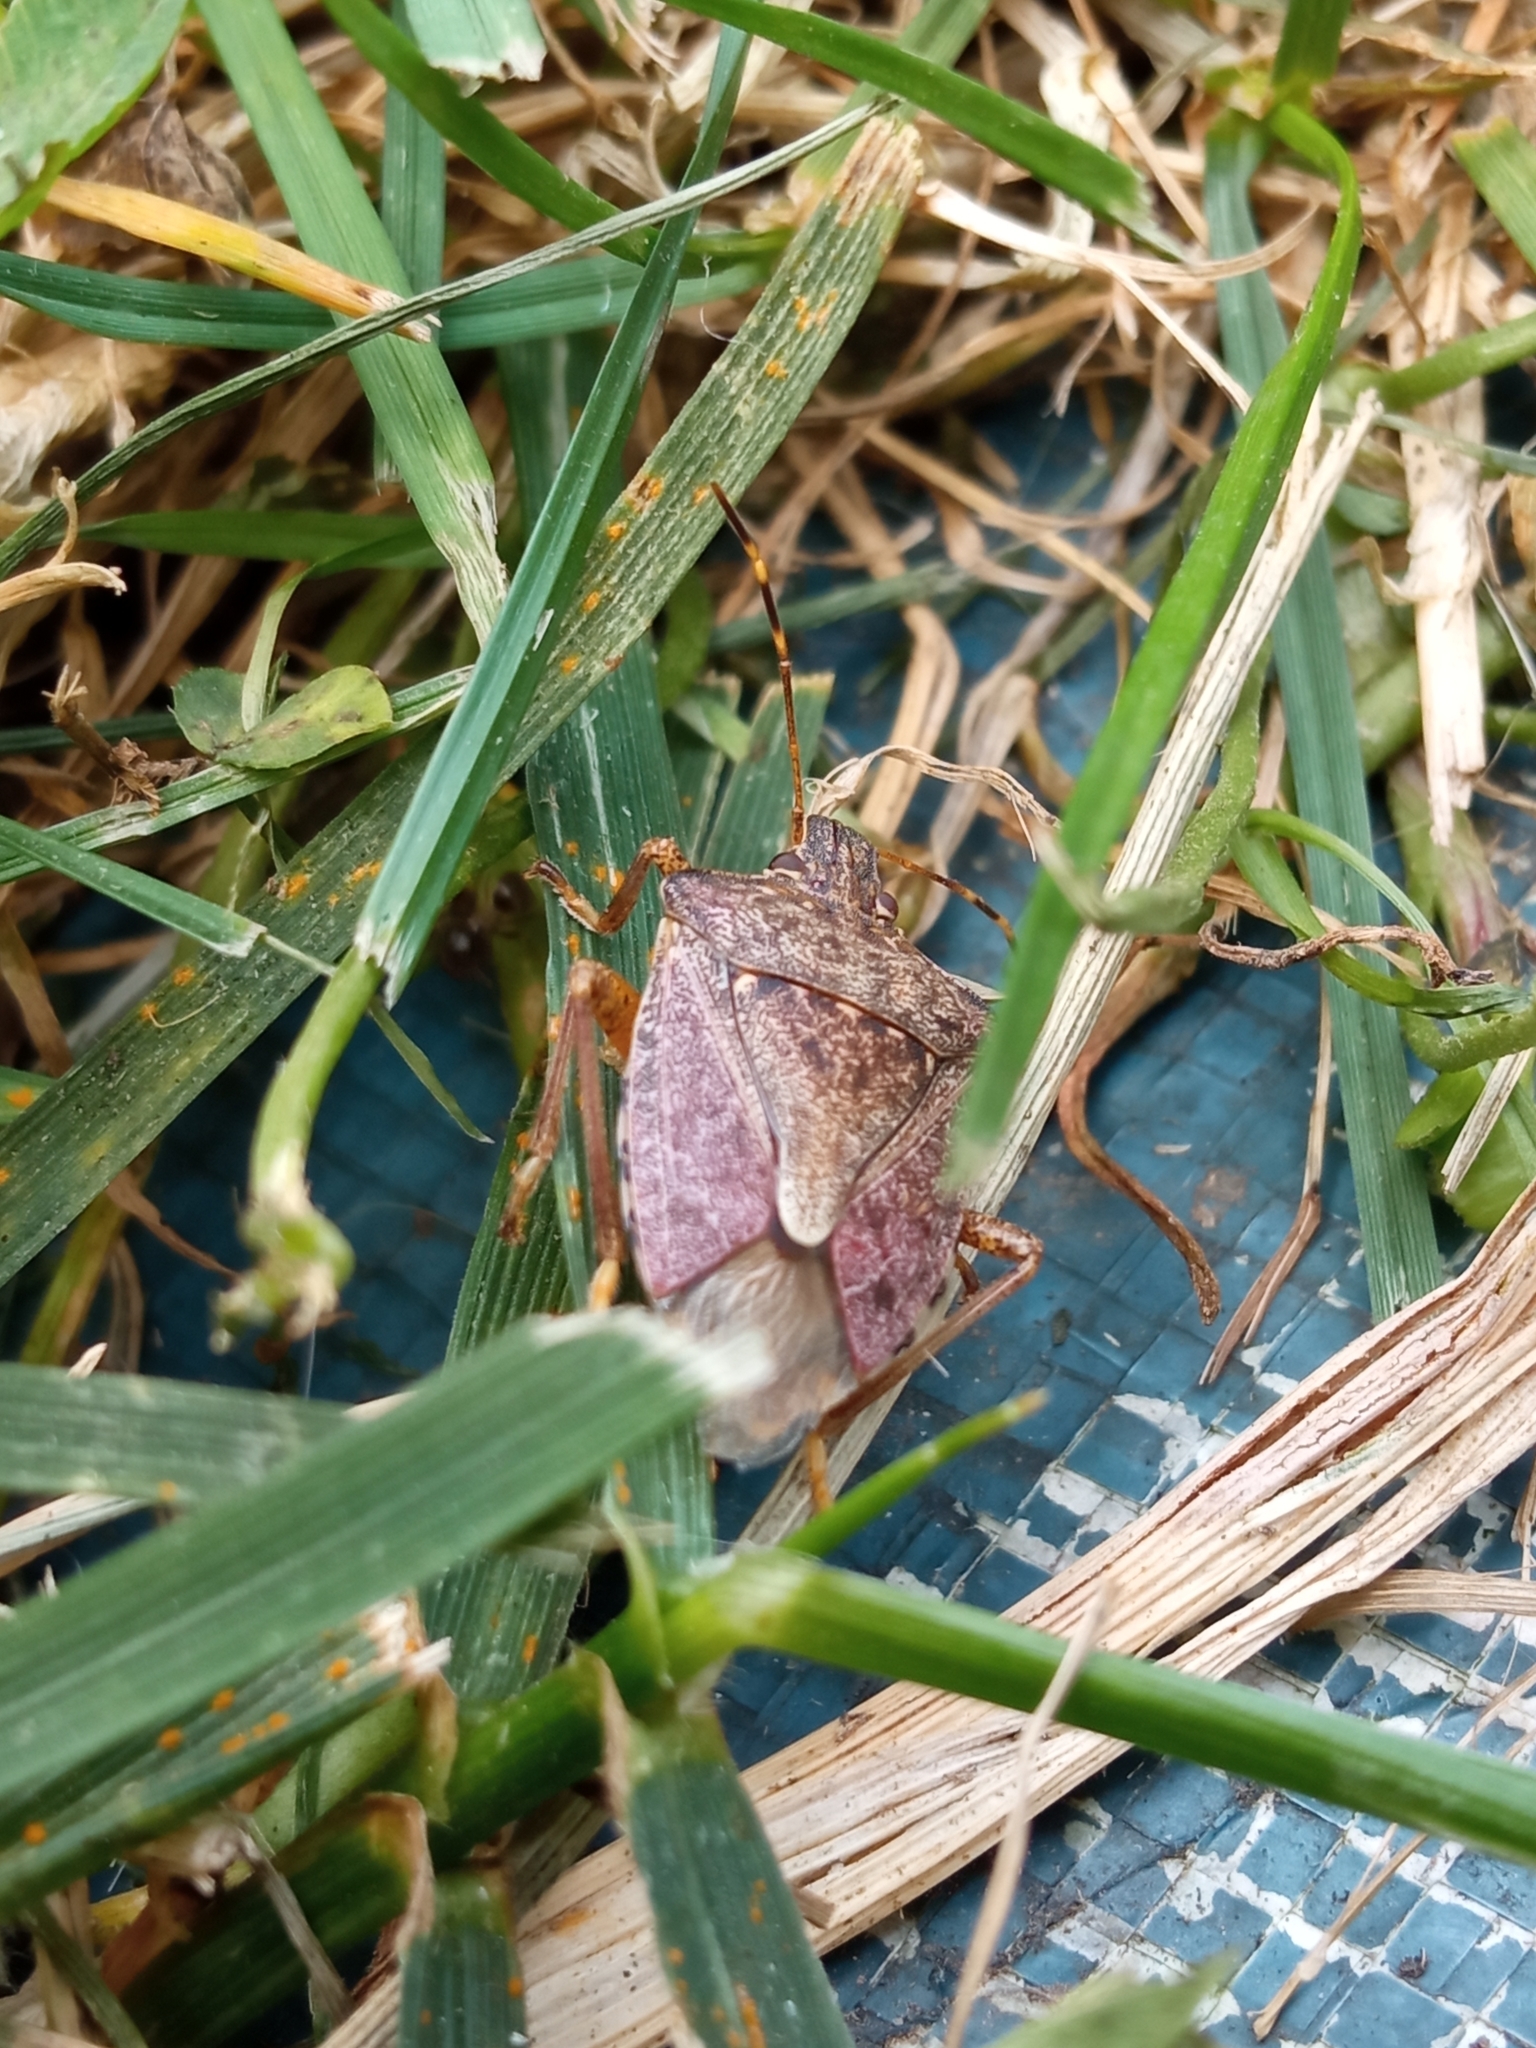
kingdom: Animalia
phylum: Arthropoda
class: Insecta
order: Hemiptera
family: Pentatomidae
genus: Halyomorpha
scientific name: Halyomorpha halys
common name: Brown marmorated stink bug
